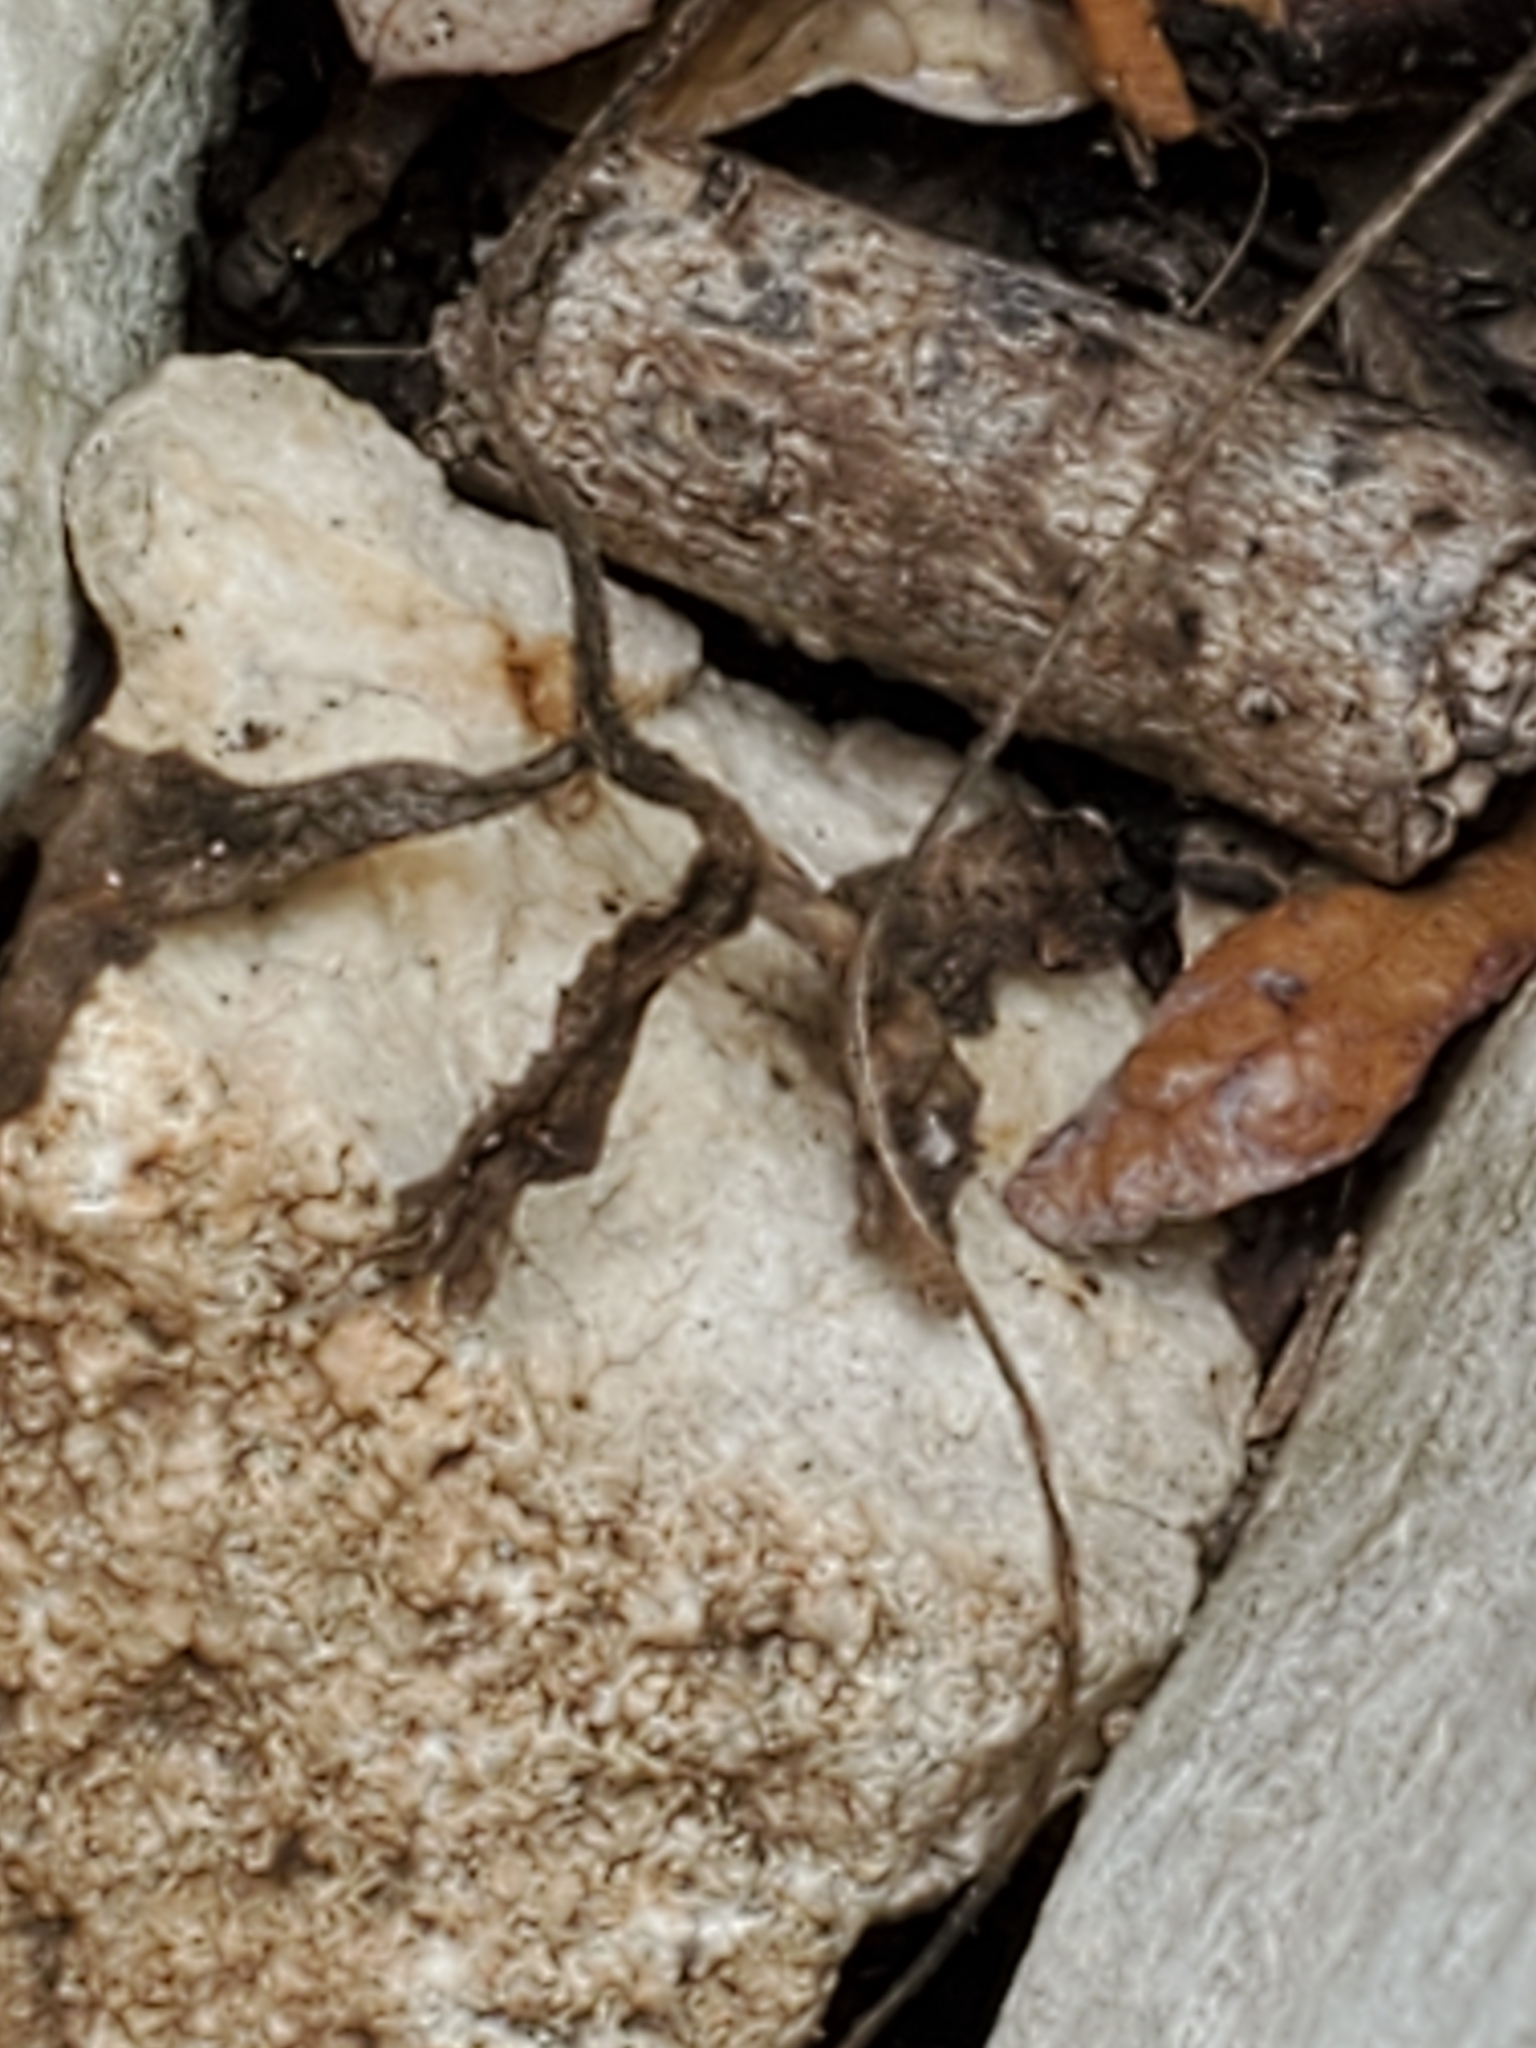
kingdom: Plantae
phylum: Tracheophyta
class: Magnoliopsida
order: Ranunculales
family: Ranunculaceae
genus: Anemone
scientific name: Anemone edwardsiana
